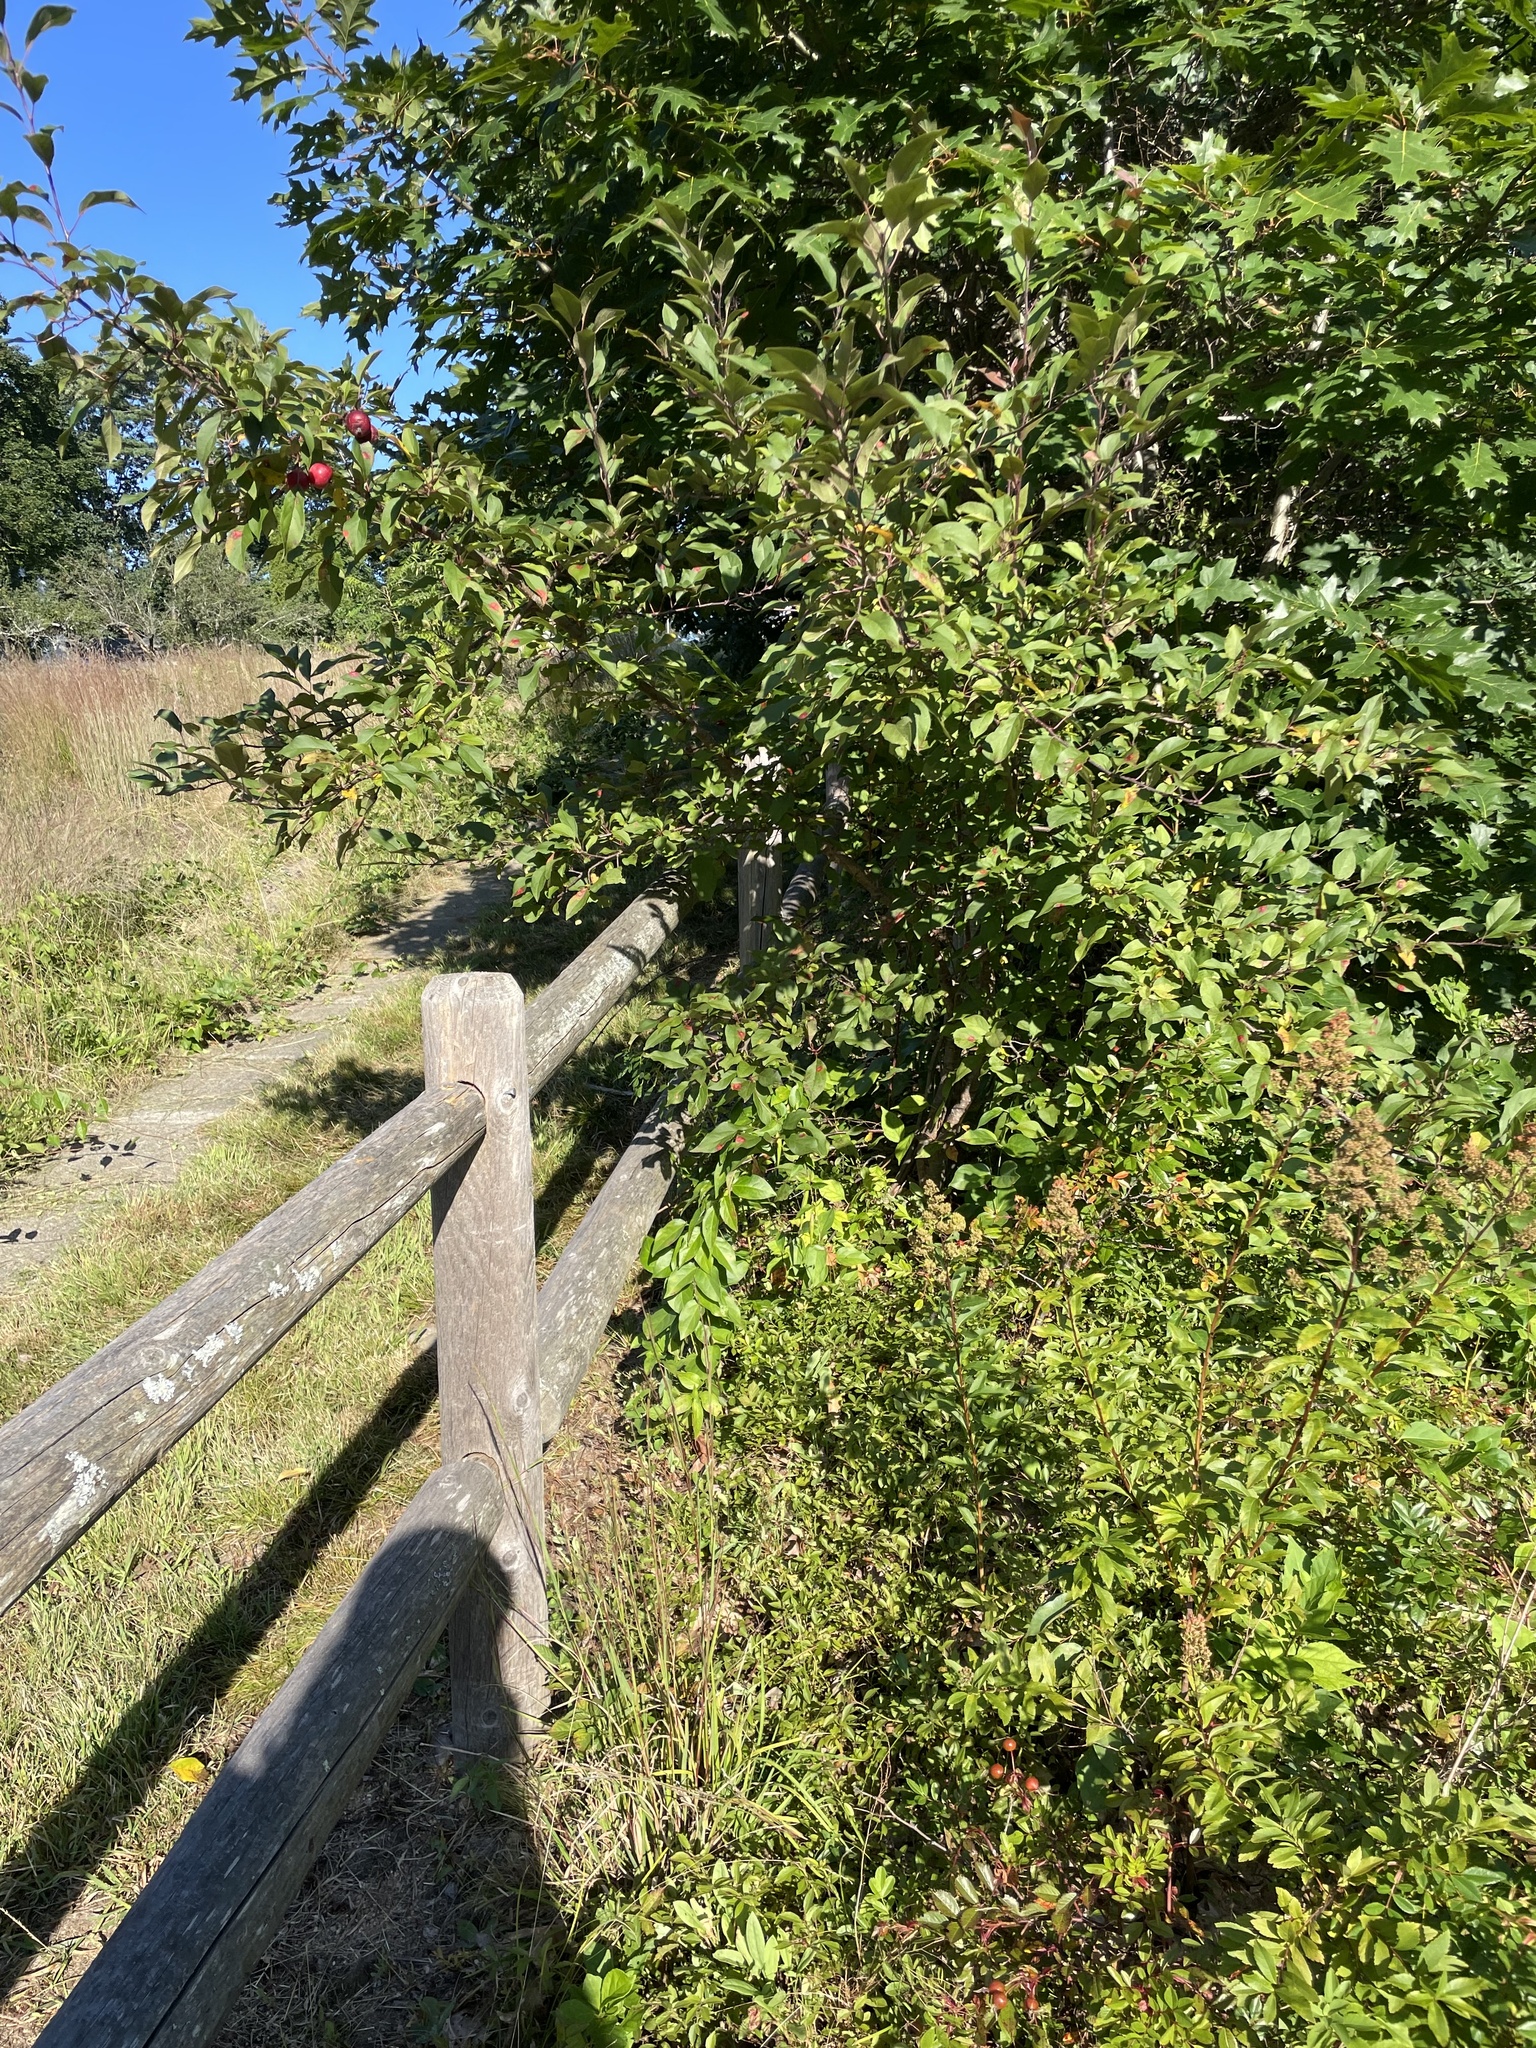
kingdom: Plantae
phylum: Tracheophyta
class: Magnoliopsida
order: Rosales
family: Rosaceae
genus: Malus
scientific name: Malus domestica
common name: Apple
